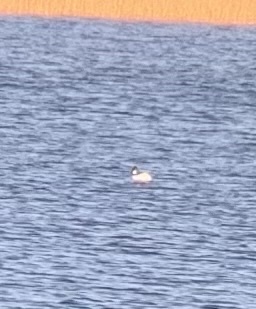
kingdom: Animalia
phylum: Chordata
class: Aves
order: Anseriformes
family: Anatidae
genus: Bucephala
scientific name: Bucephala clangula
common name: Common goldeneye
